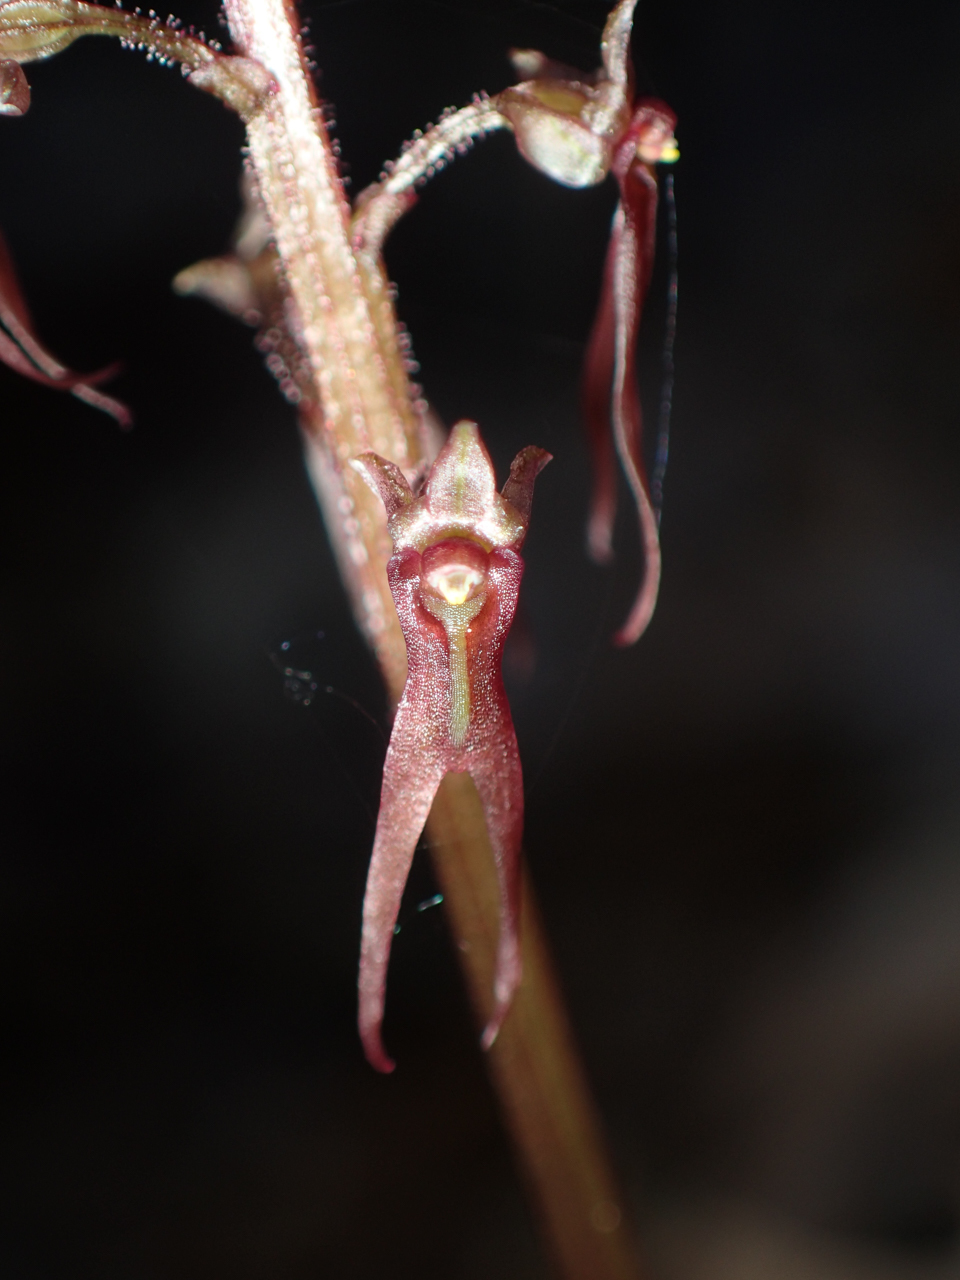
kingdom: Plantae
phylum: Tracheophyta
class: Liliopsida
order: Asparagales
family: Orchidaceae
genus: Neottia
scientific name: Neottia bifolia
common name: Southern twayblade
